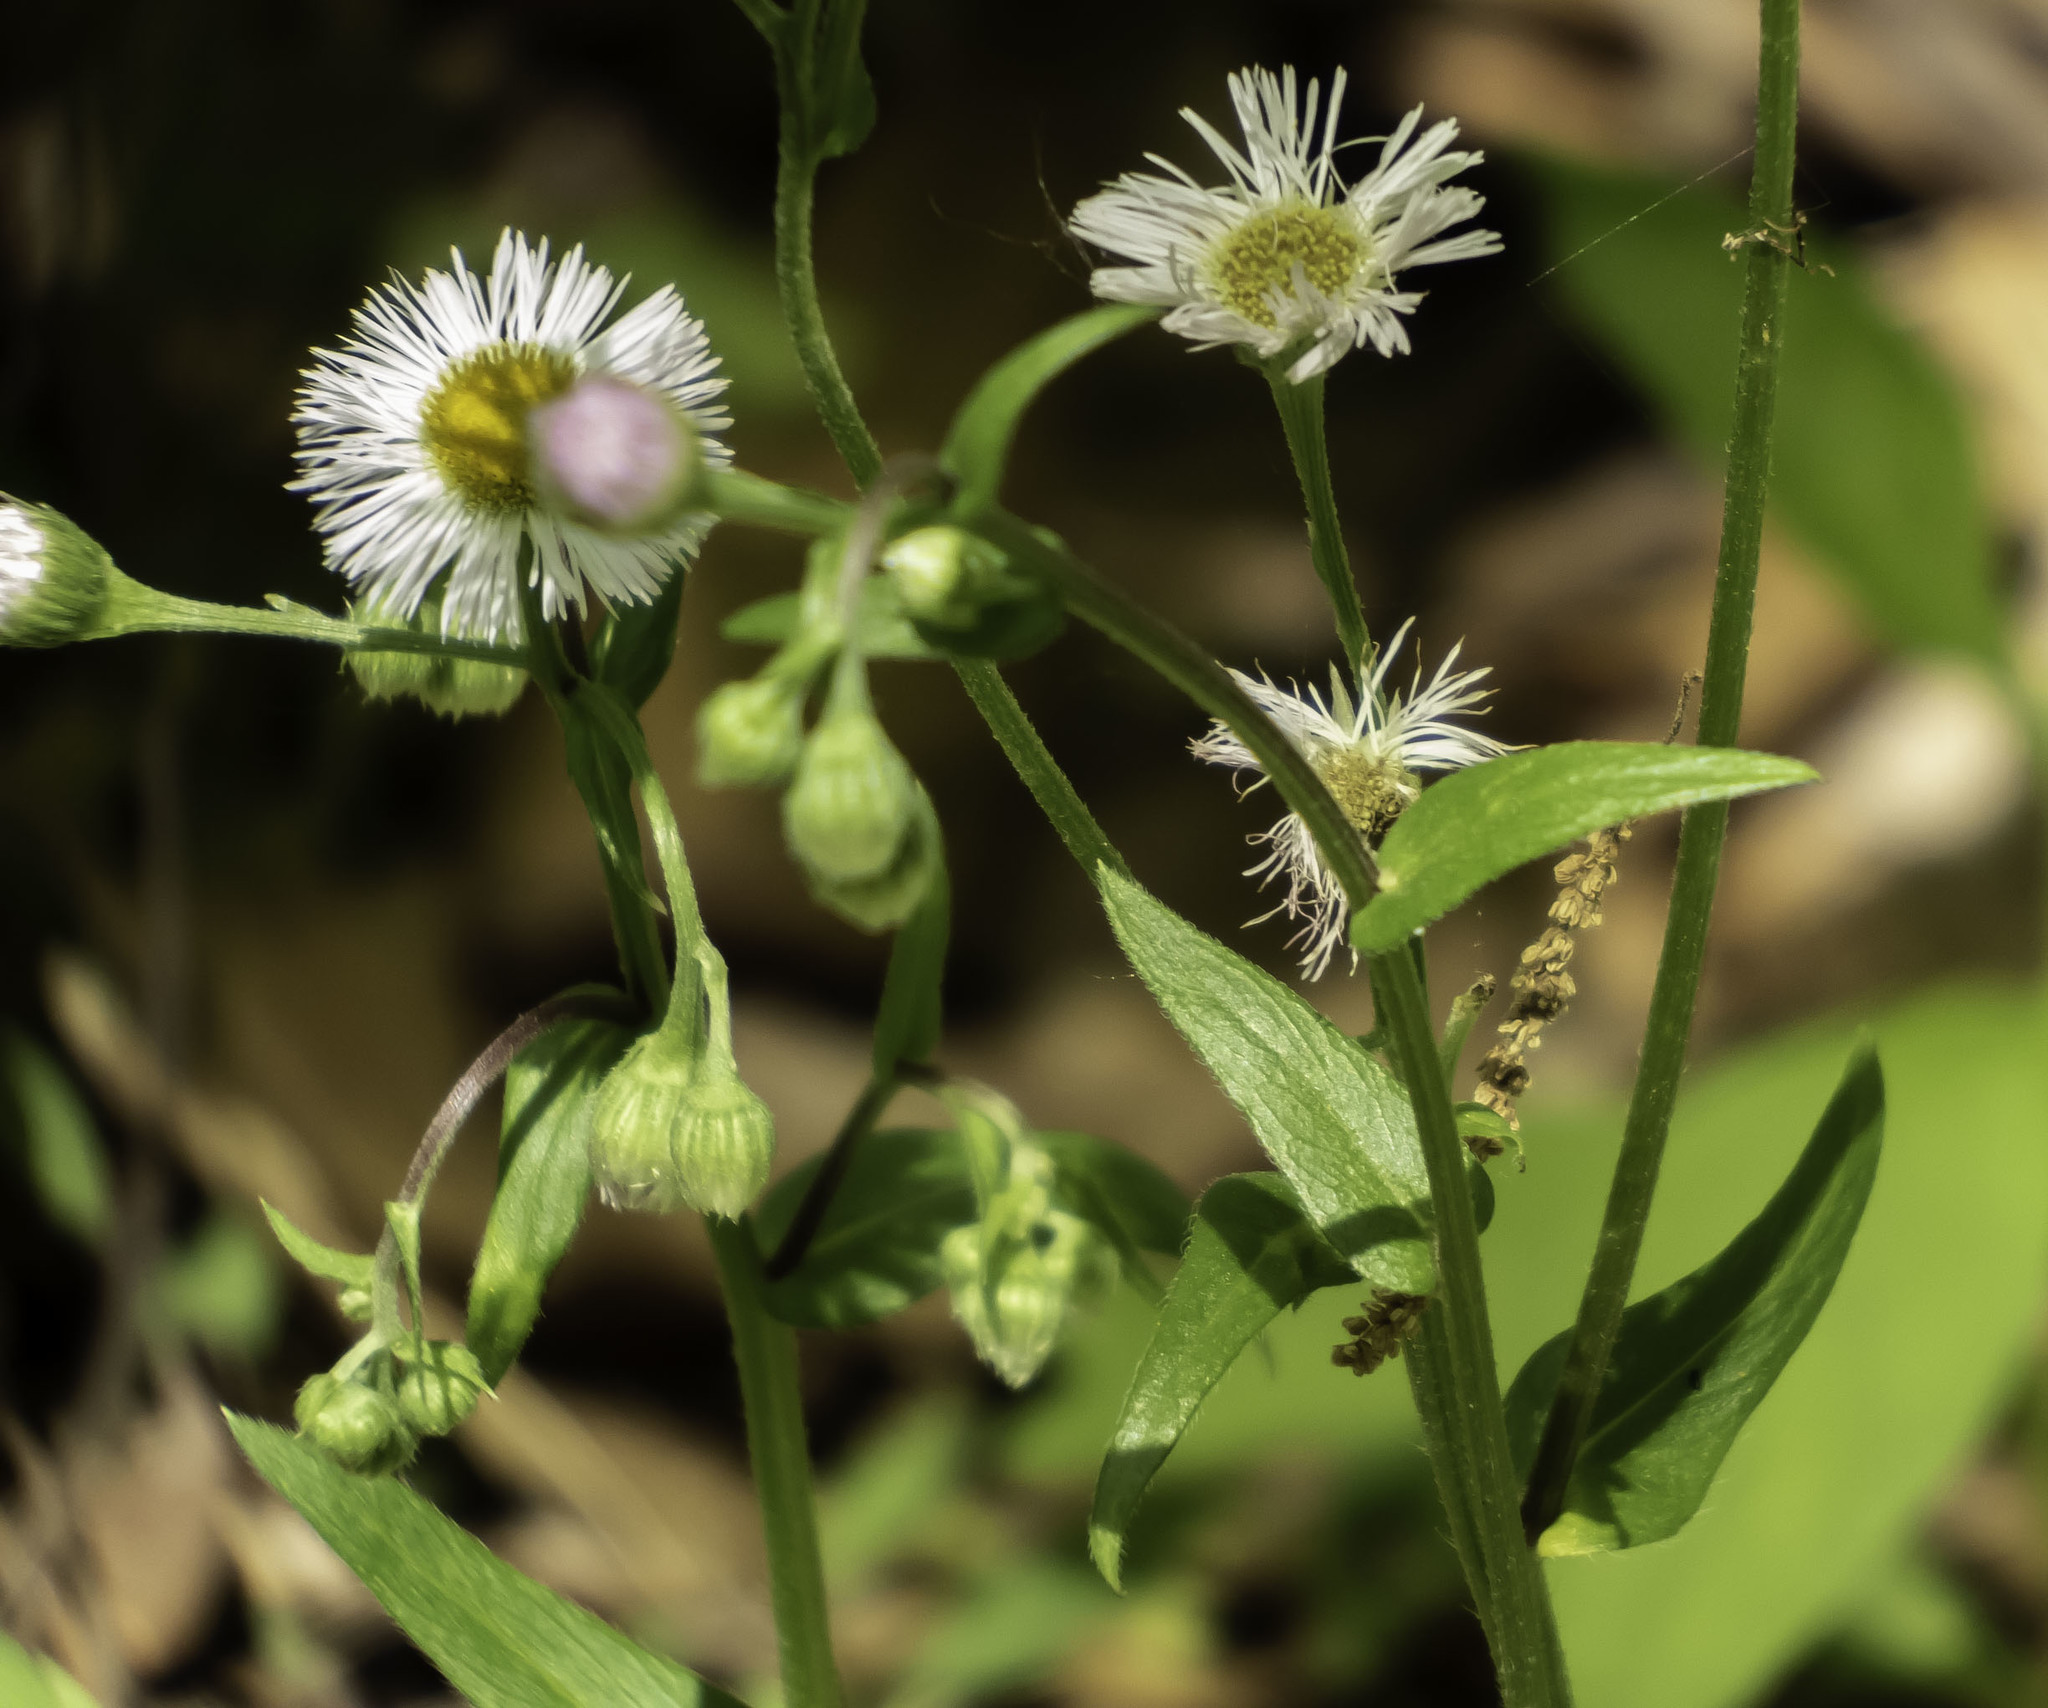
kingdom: Plantae
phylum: Tracheophyta
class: Magnoliopsida
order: Asterales
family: Asteraceae
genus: Erigeron
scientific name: Erigeron philadelphicus
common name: Robin's-plantain
